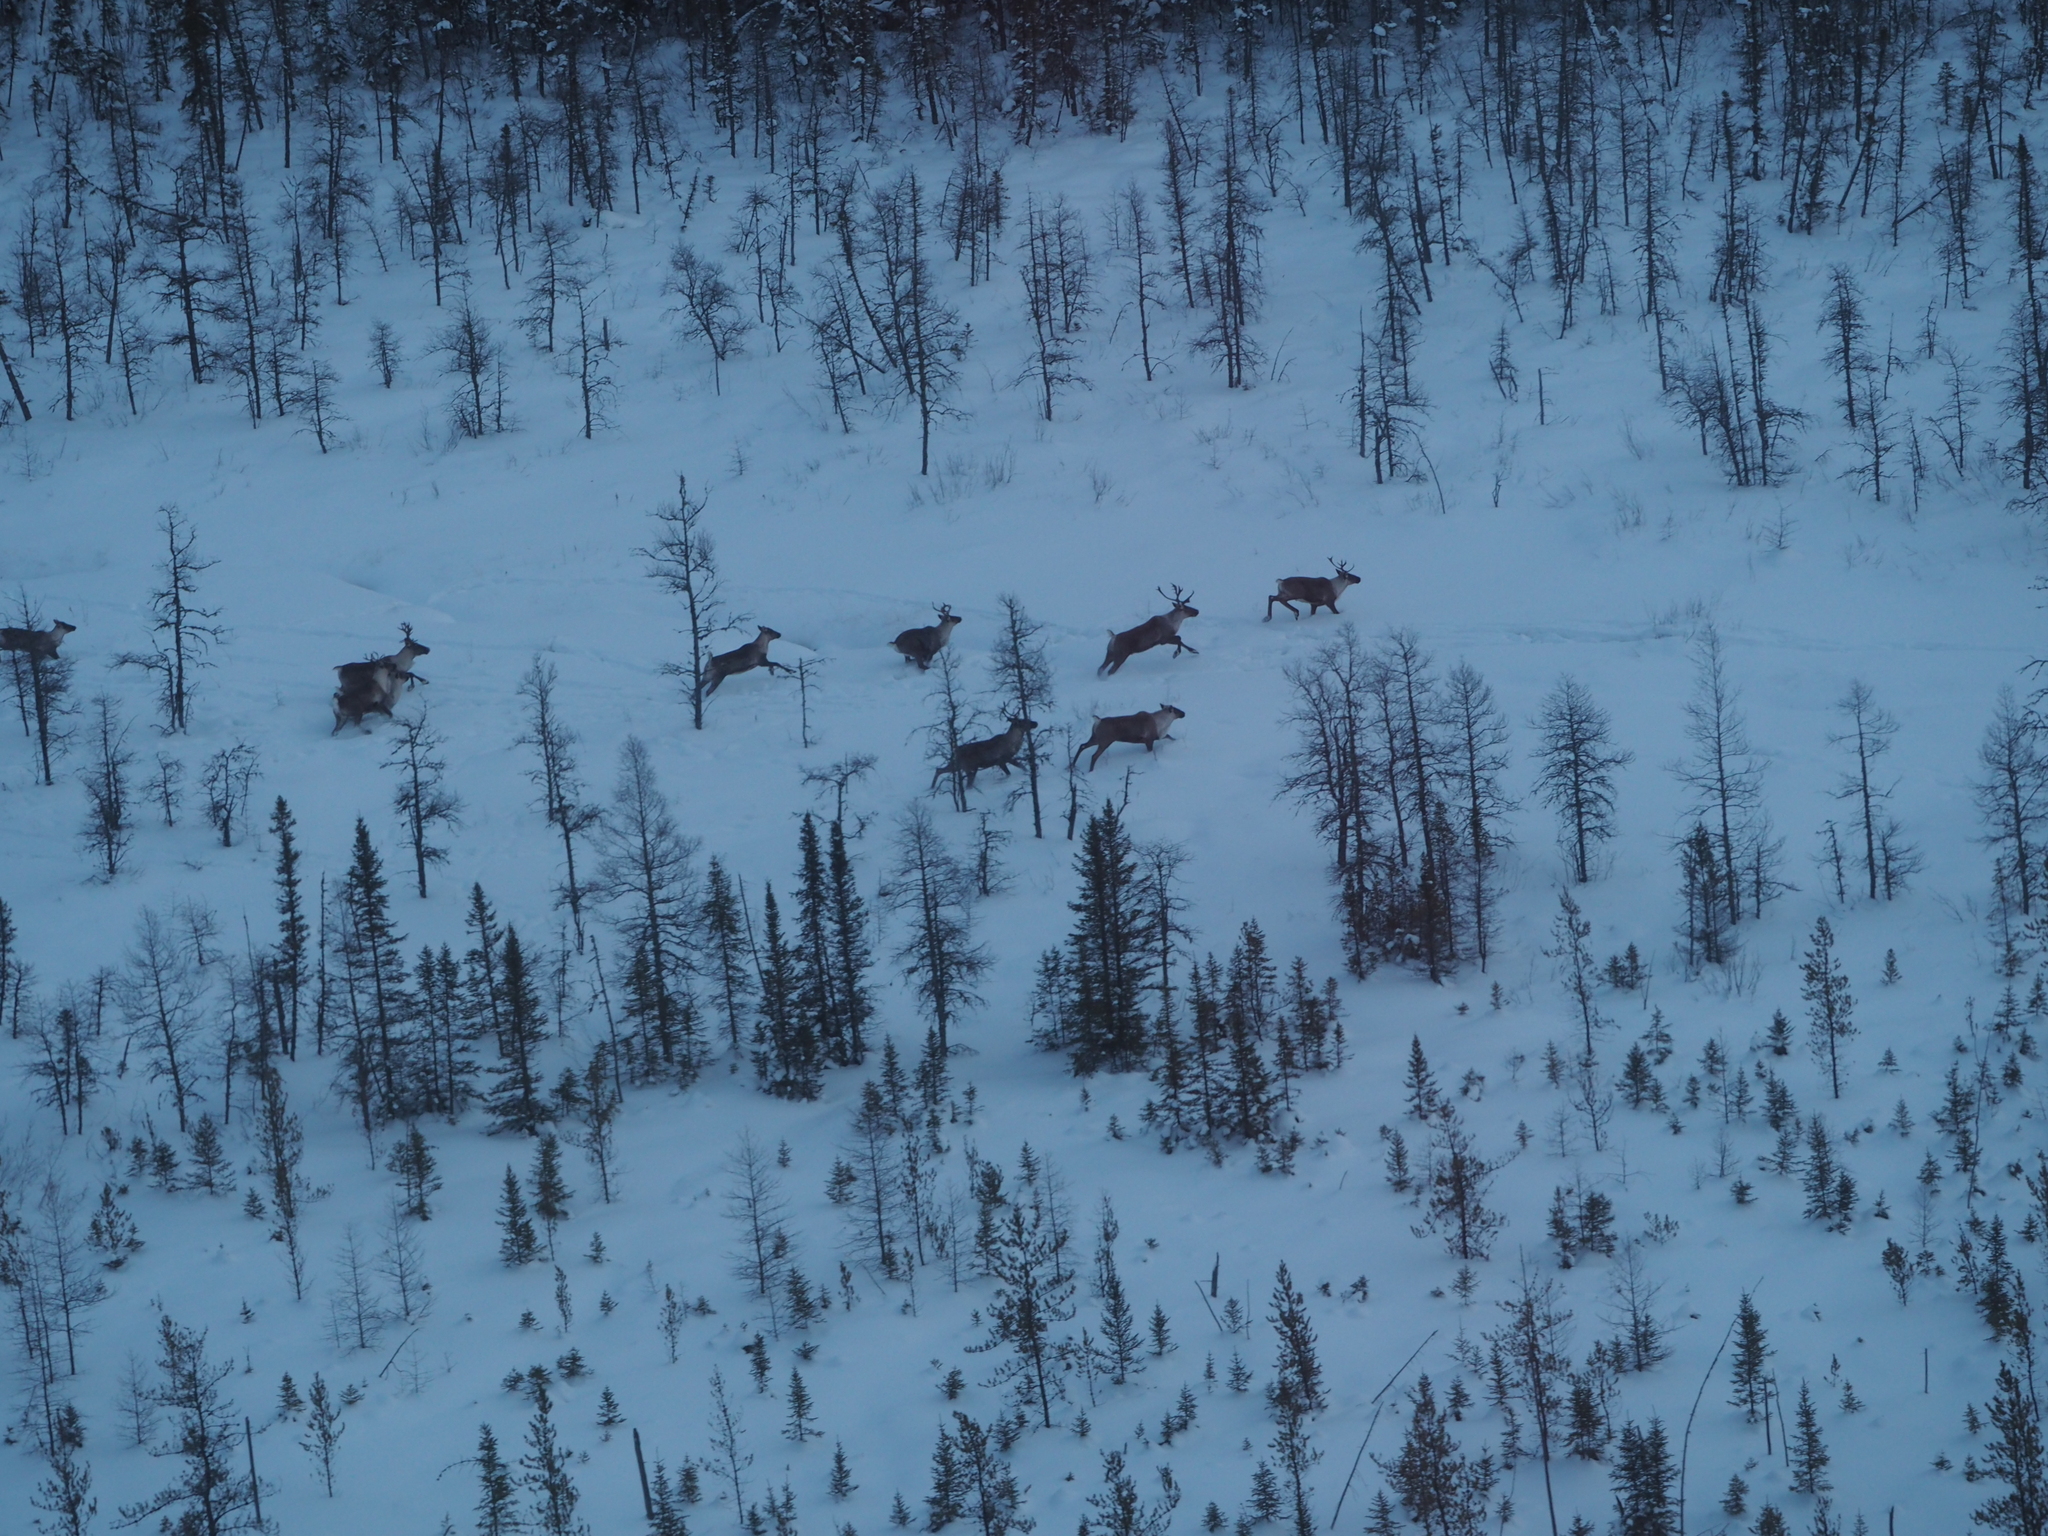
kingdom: Animalia
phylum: Chordata
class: Mammalia
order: Artiodactyla
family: Cervidae
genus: Rangifer
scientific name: Rangifer tarandus
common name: Reindeer
